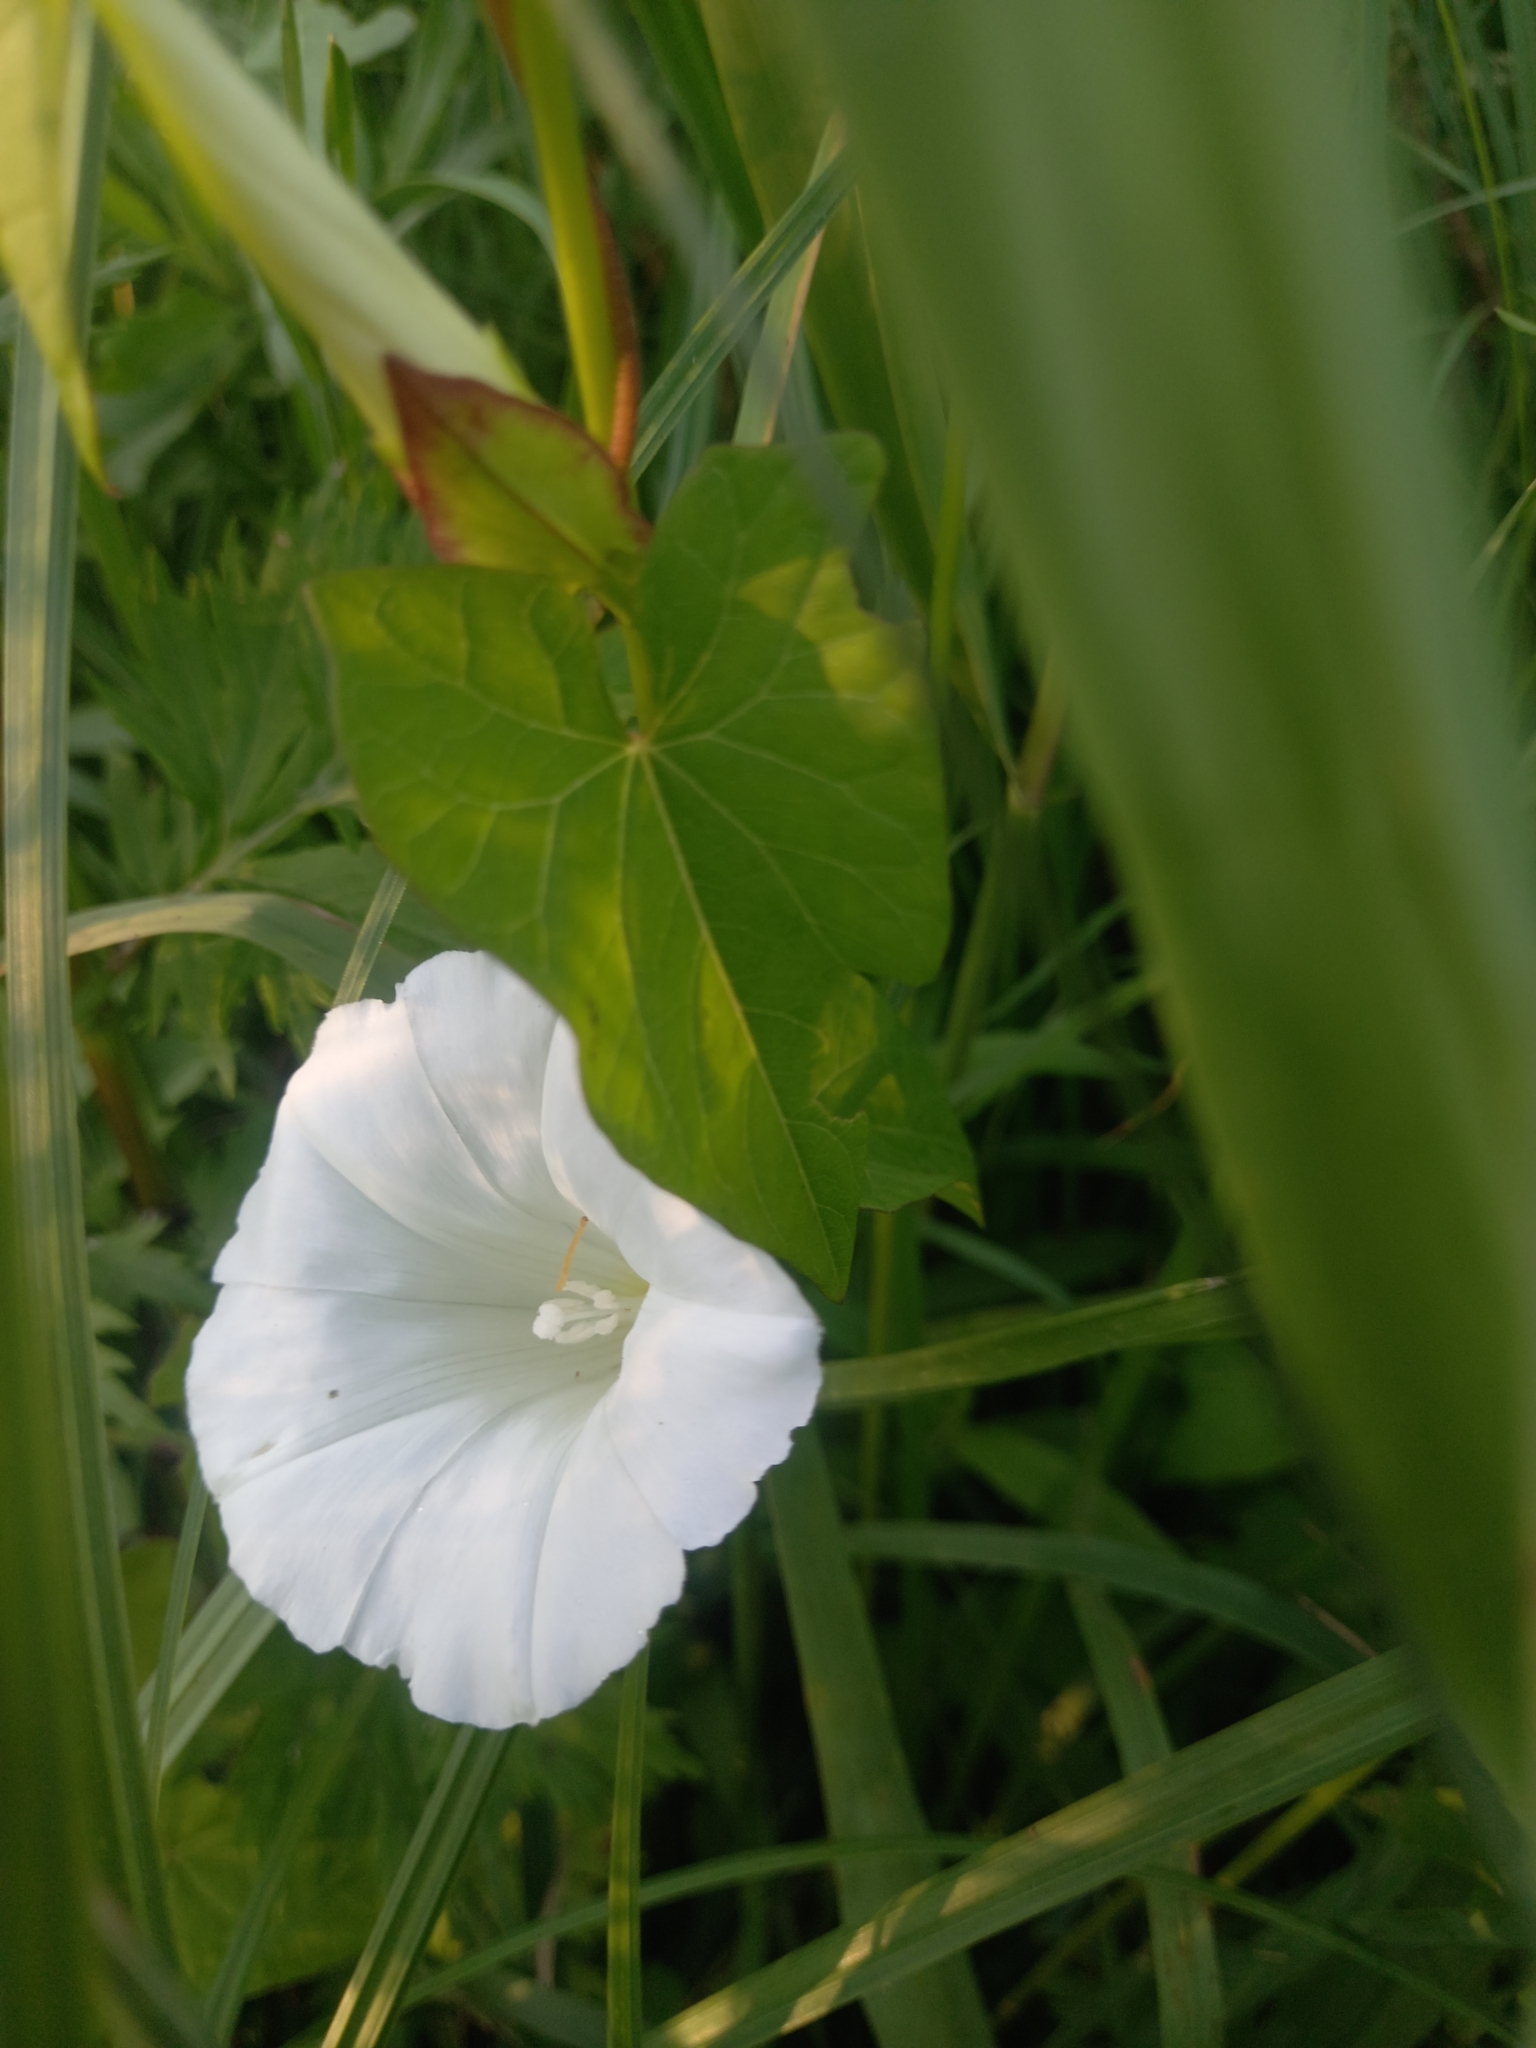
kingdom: Plantae
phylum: Tracheophyta
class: Magnoliopsida
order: Solanales
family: Convolvulaceae
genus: Calystegia
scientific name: Calystegia sepium
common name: Hedge bindweed
